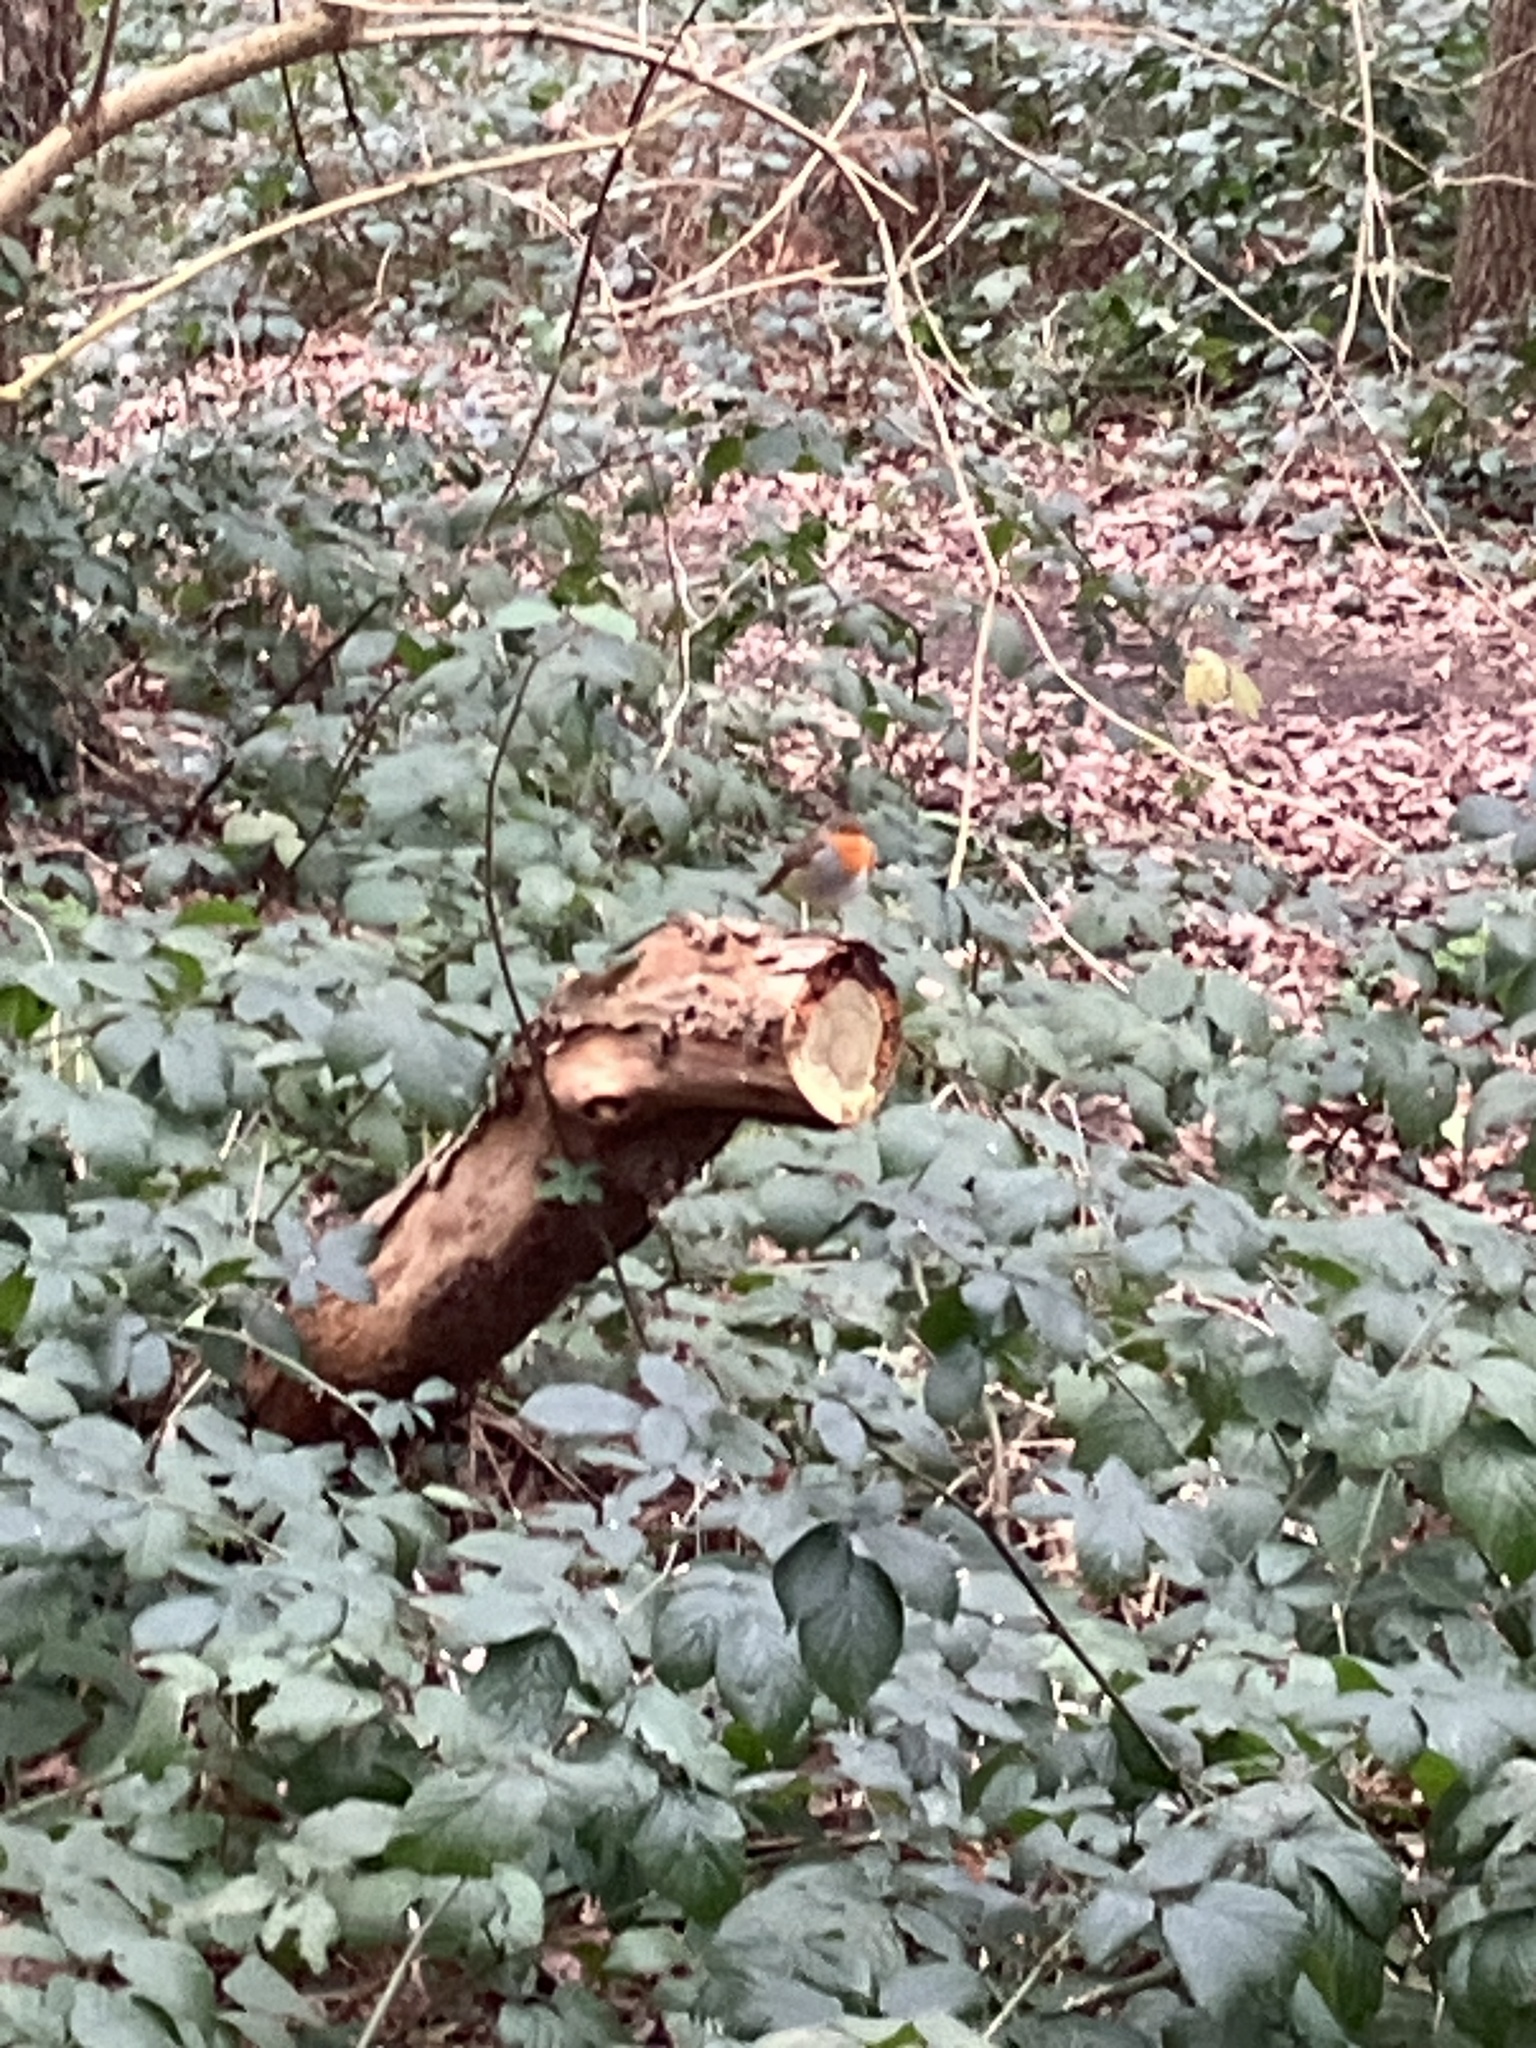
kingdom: Animalia
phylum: Chordata
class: Aves
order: Passeriformes
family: Muscicapidae
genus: Erithacus
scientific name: Erithacus rubecula
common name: European robin
